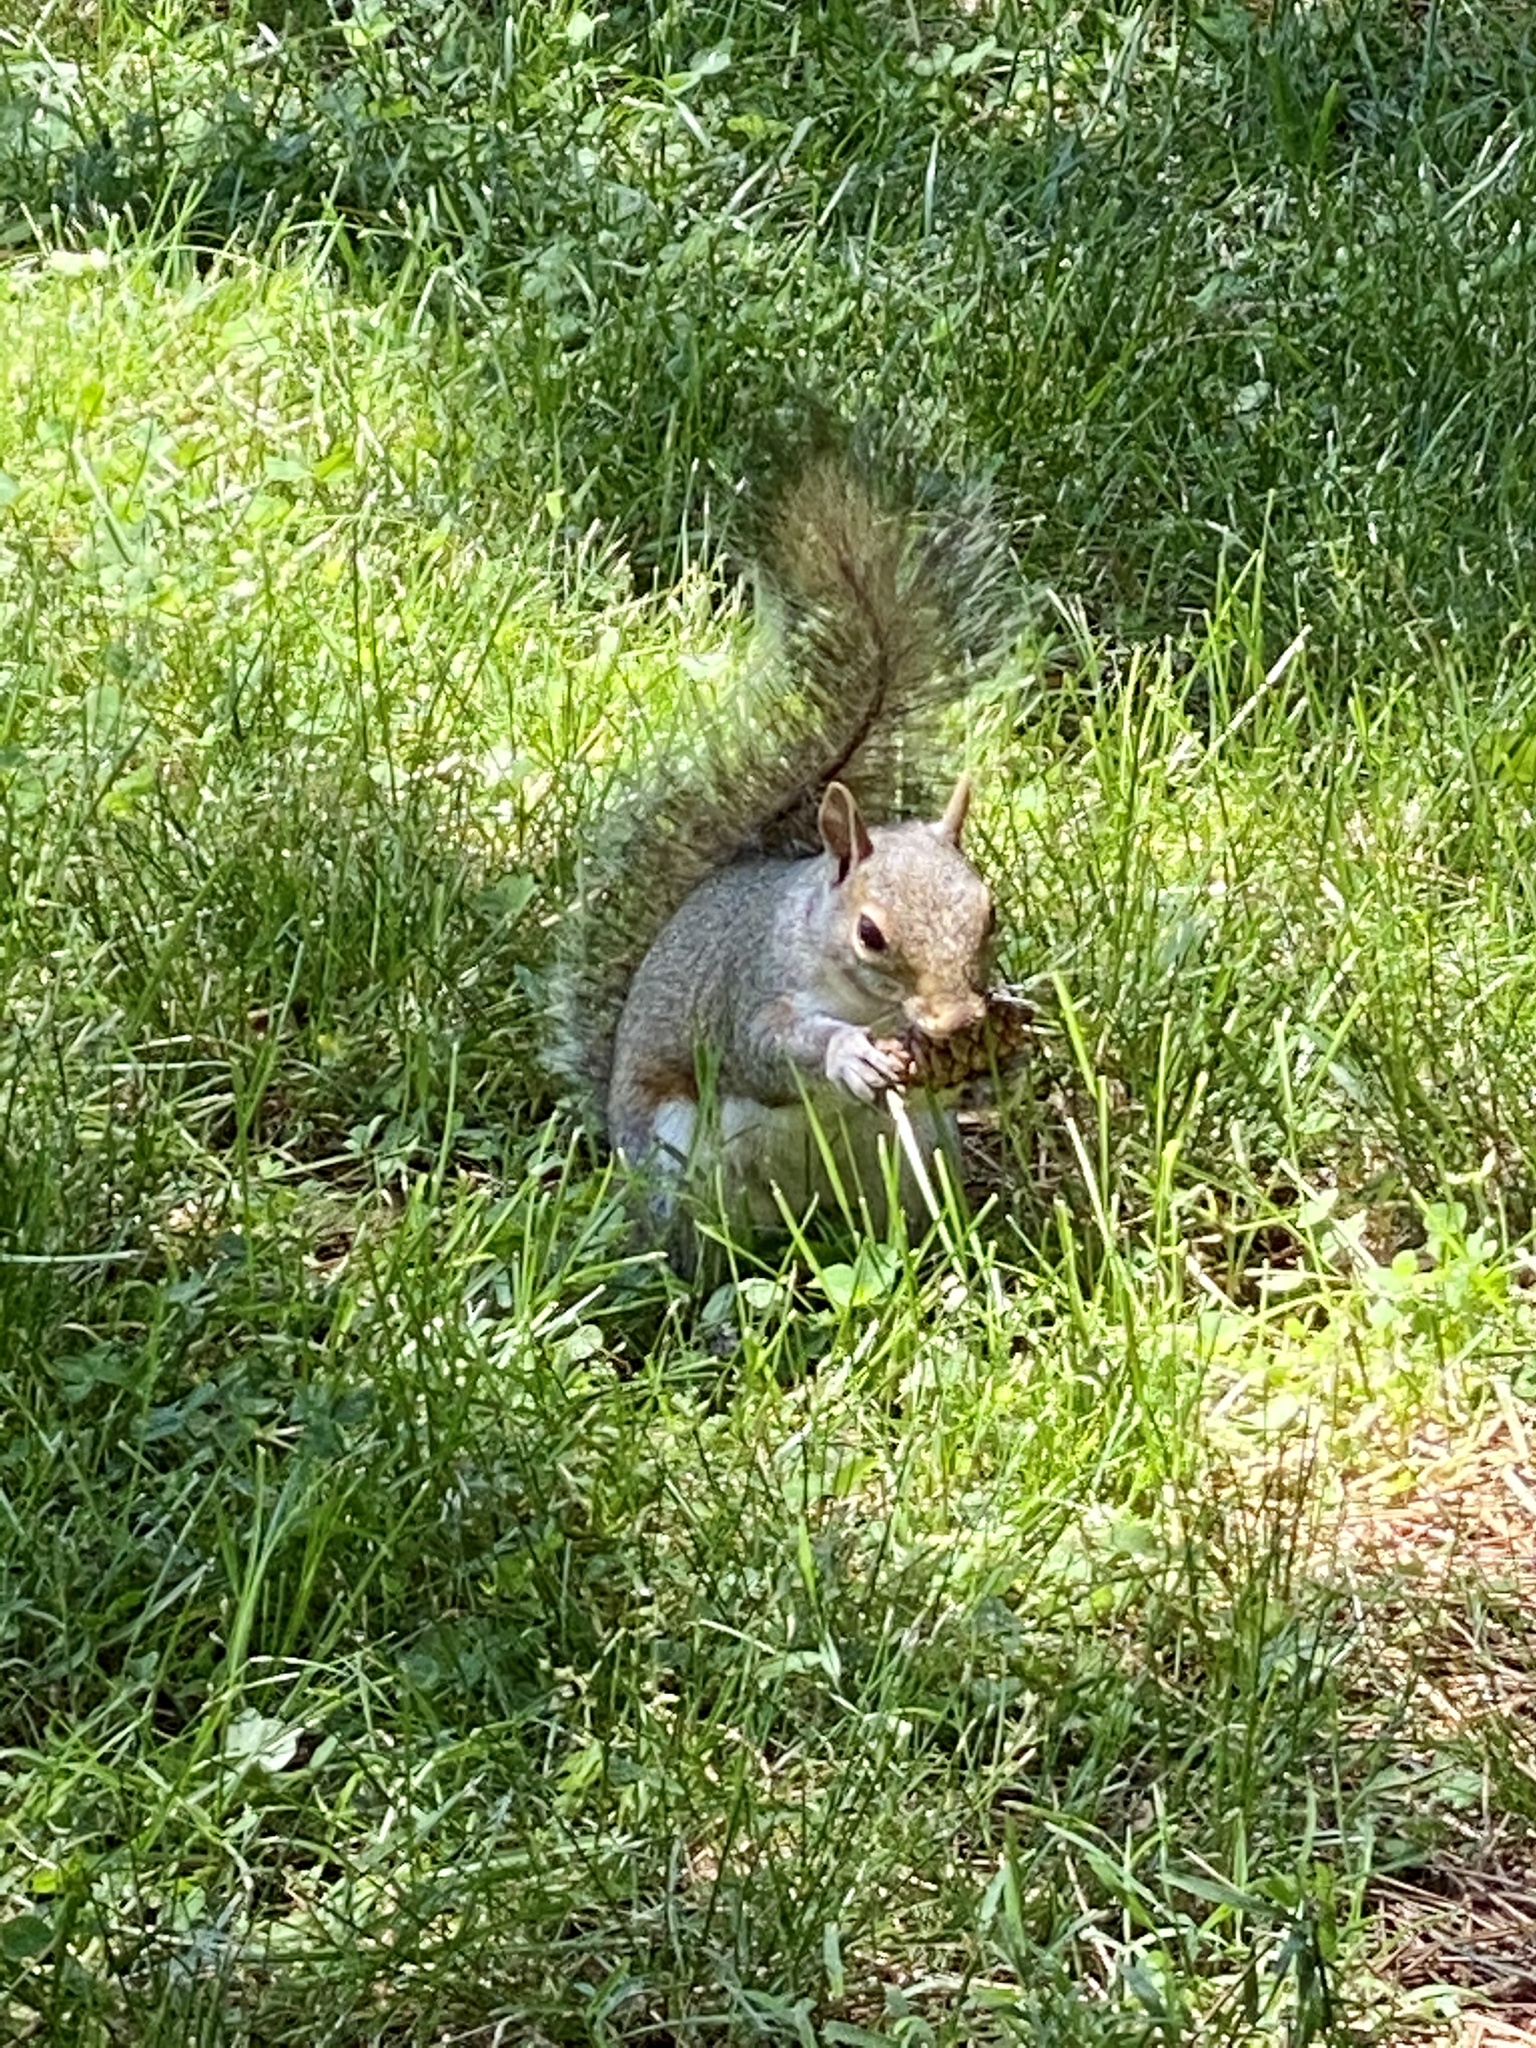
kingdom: Animalia
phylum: Chordata
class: Mammalia
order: Rodentia
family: Sciuridae
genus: Sciurus
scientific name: Sciurus carolinensis
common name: Eastern gray squirrel
